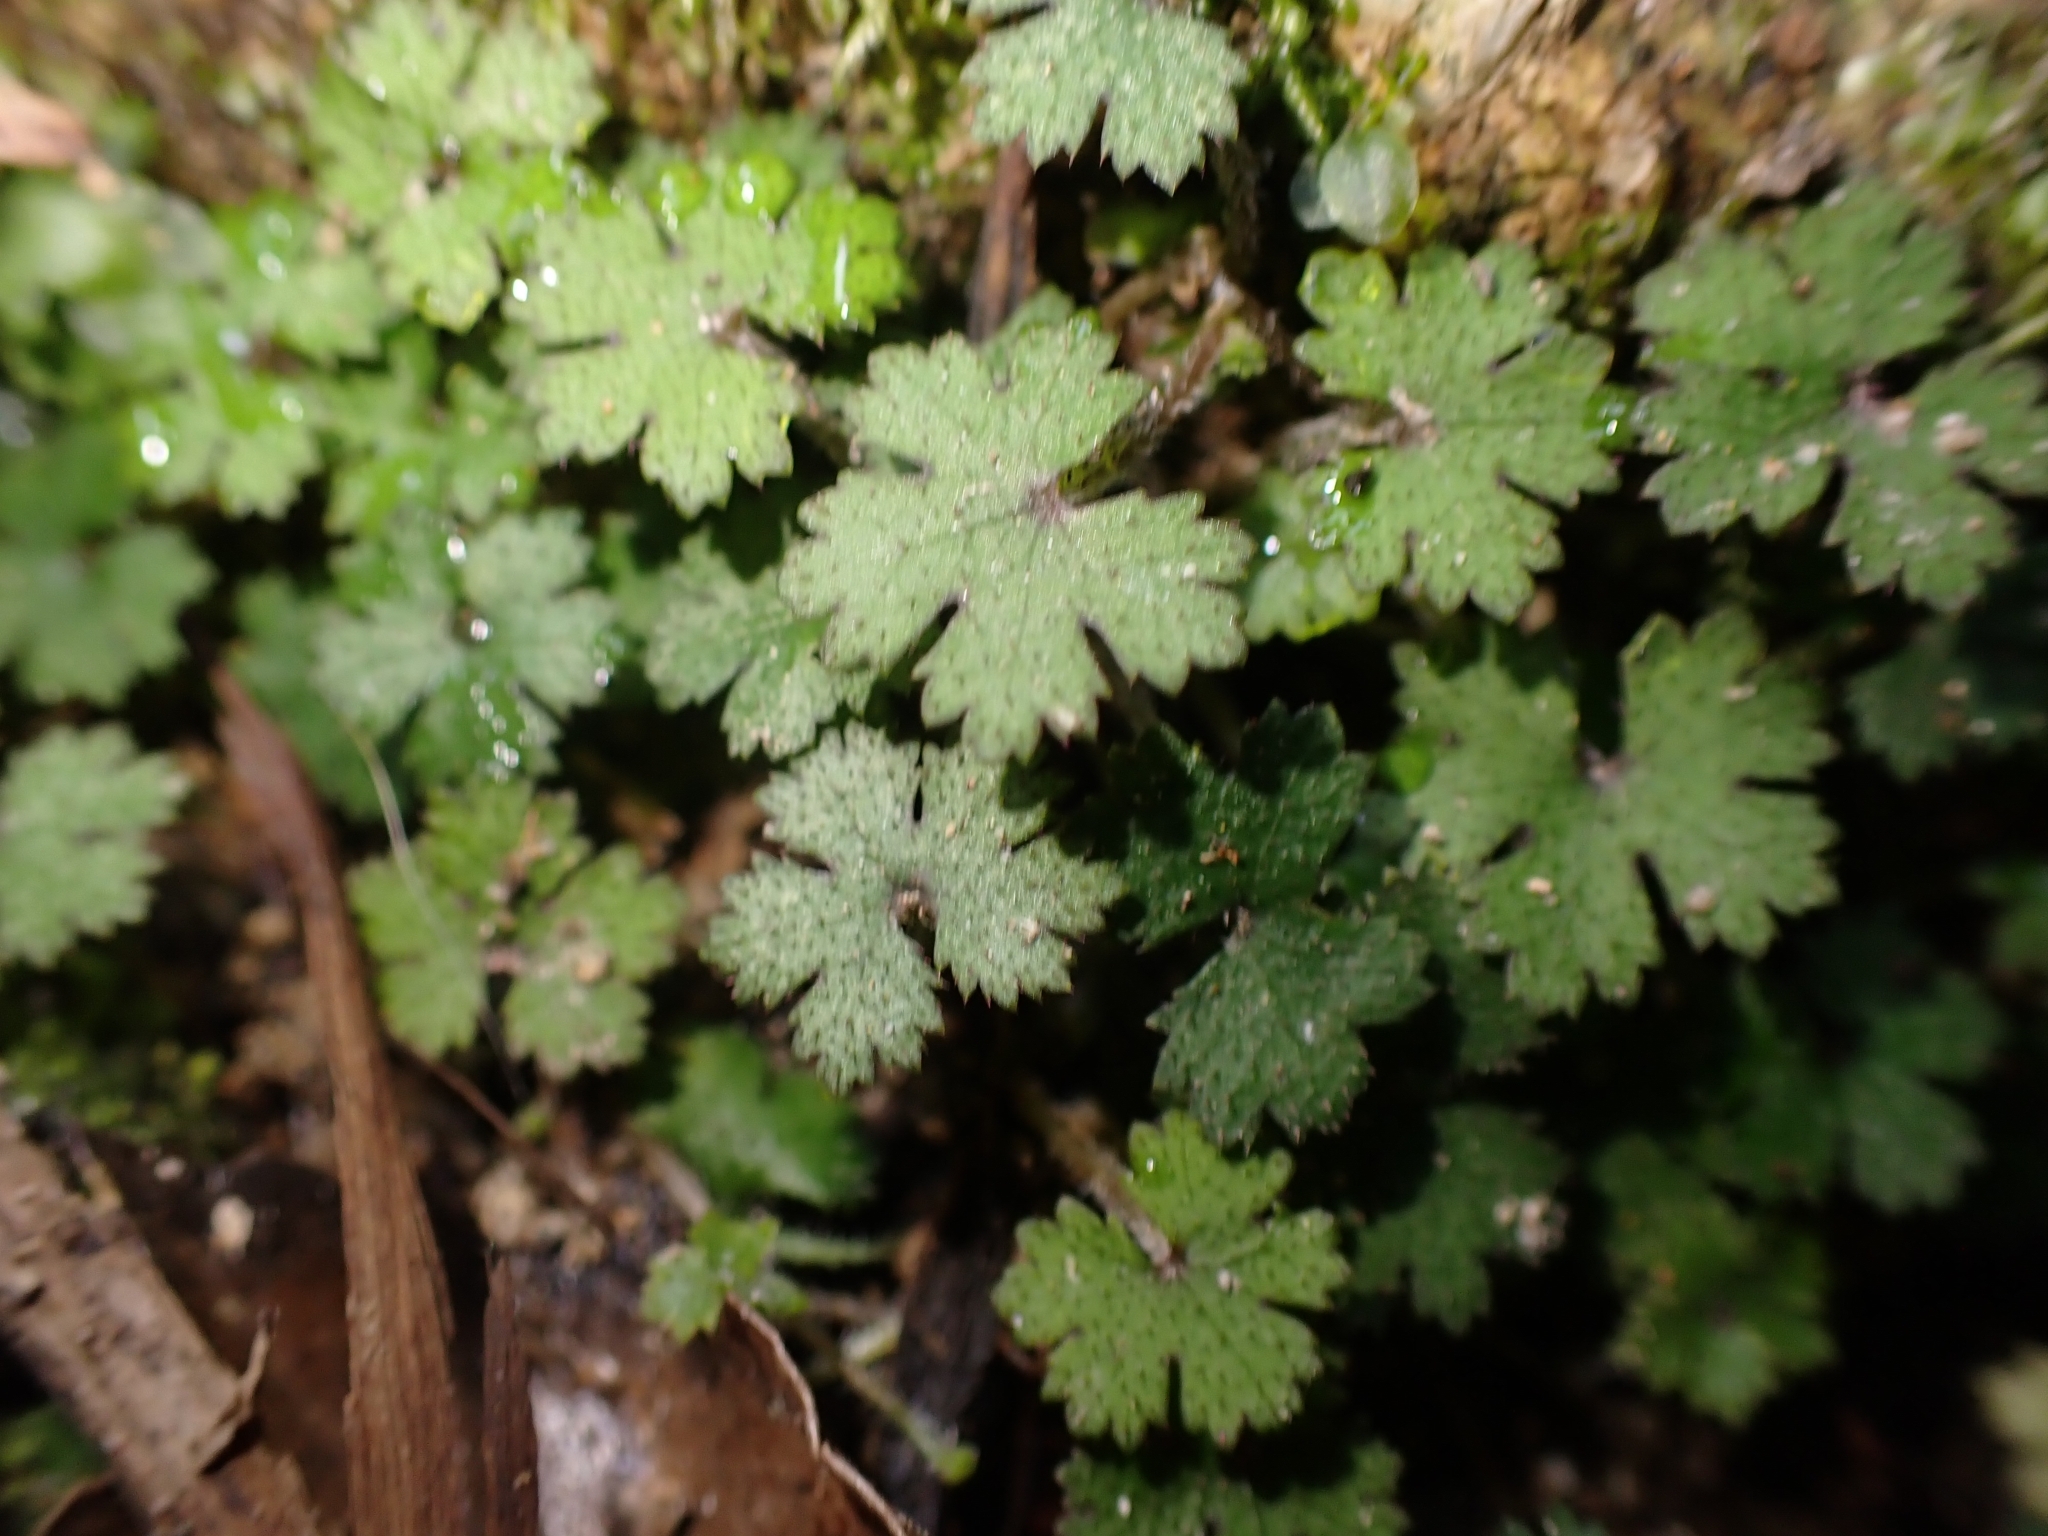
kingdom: Plantae
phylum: Tracheophyta
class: Magnoliopsida
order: Apiales
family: Araliaceae
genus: Hydrocotyle
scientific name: Hydrocotyle elongata
